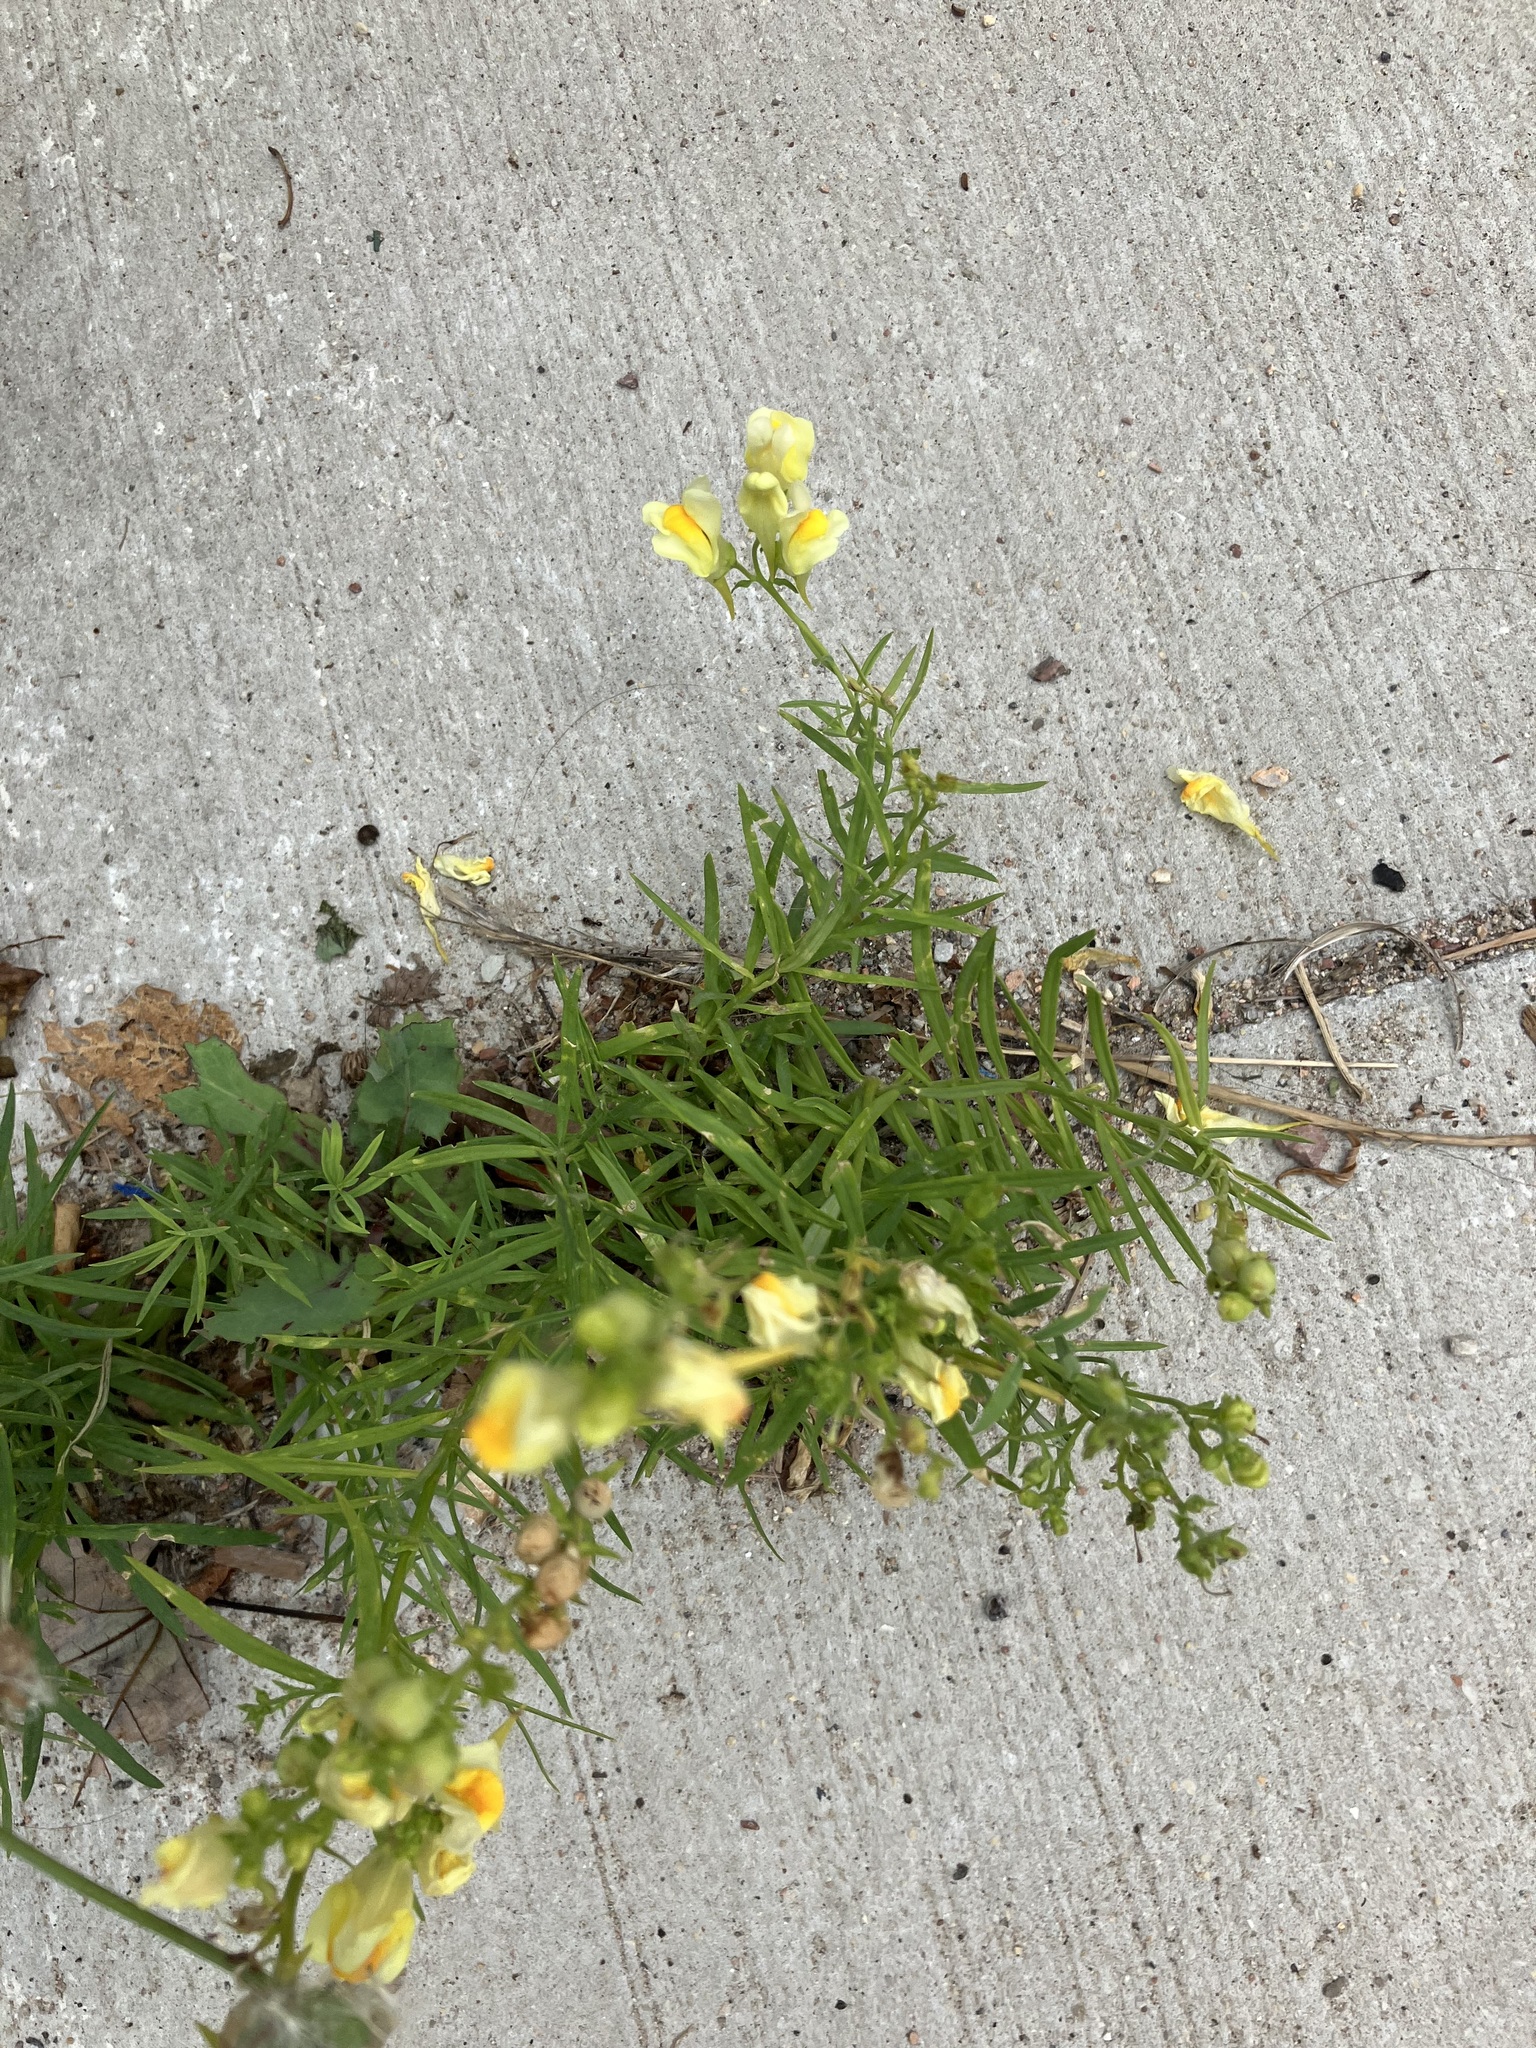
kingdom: Plantae
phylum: Tracheophyta
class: Magnoliopsida
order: Lamiales
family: Plantaginaceae
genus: Linaria
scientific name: Linaria vulgaris
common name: Butter and eggs
